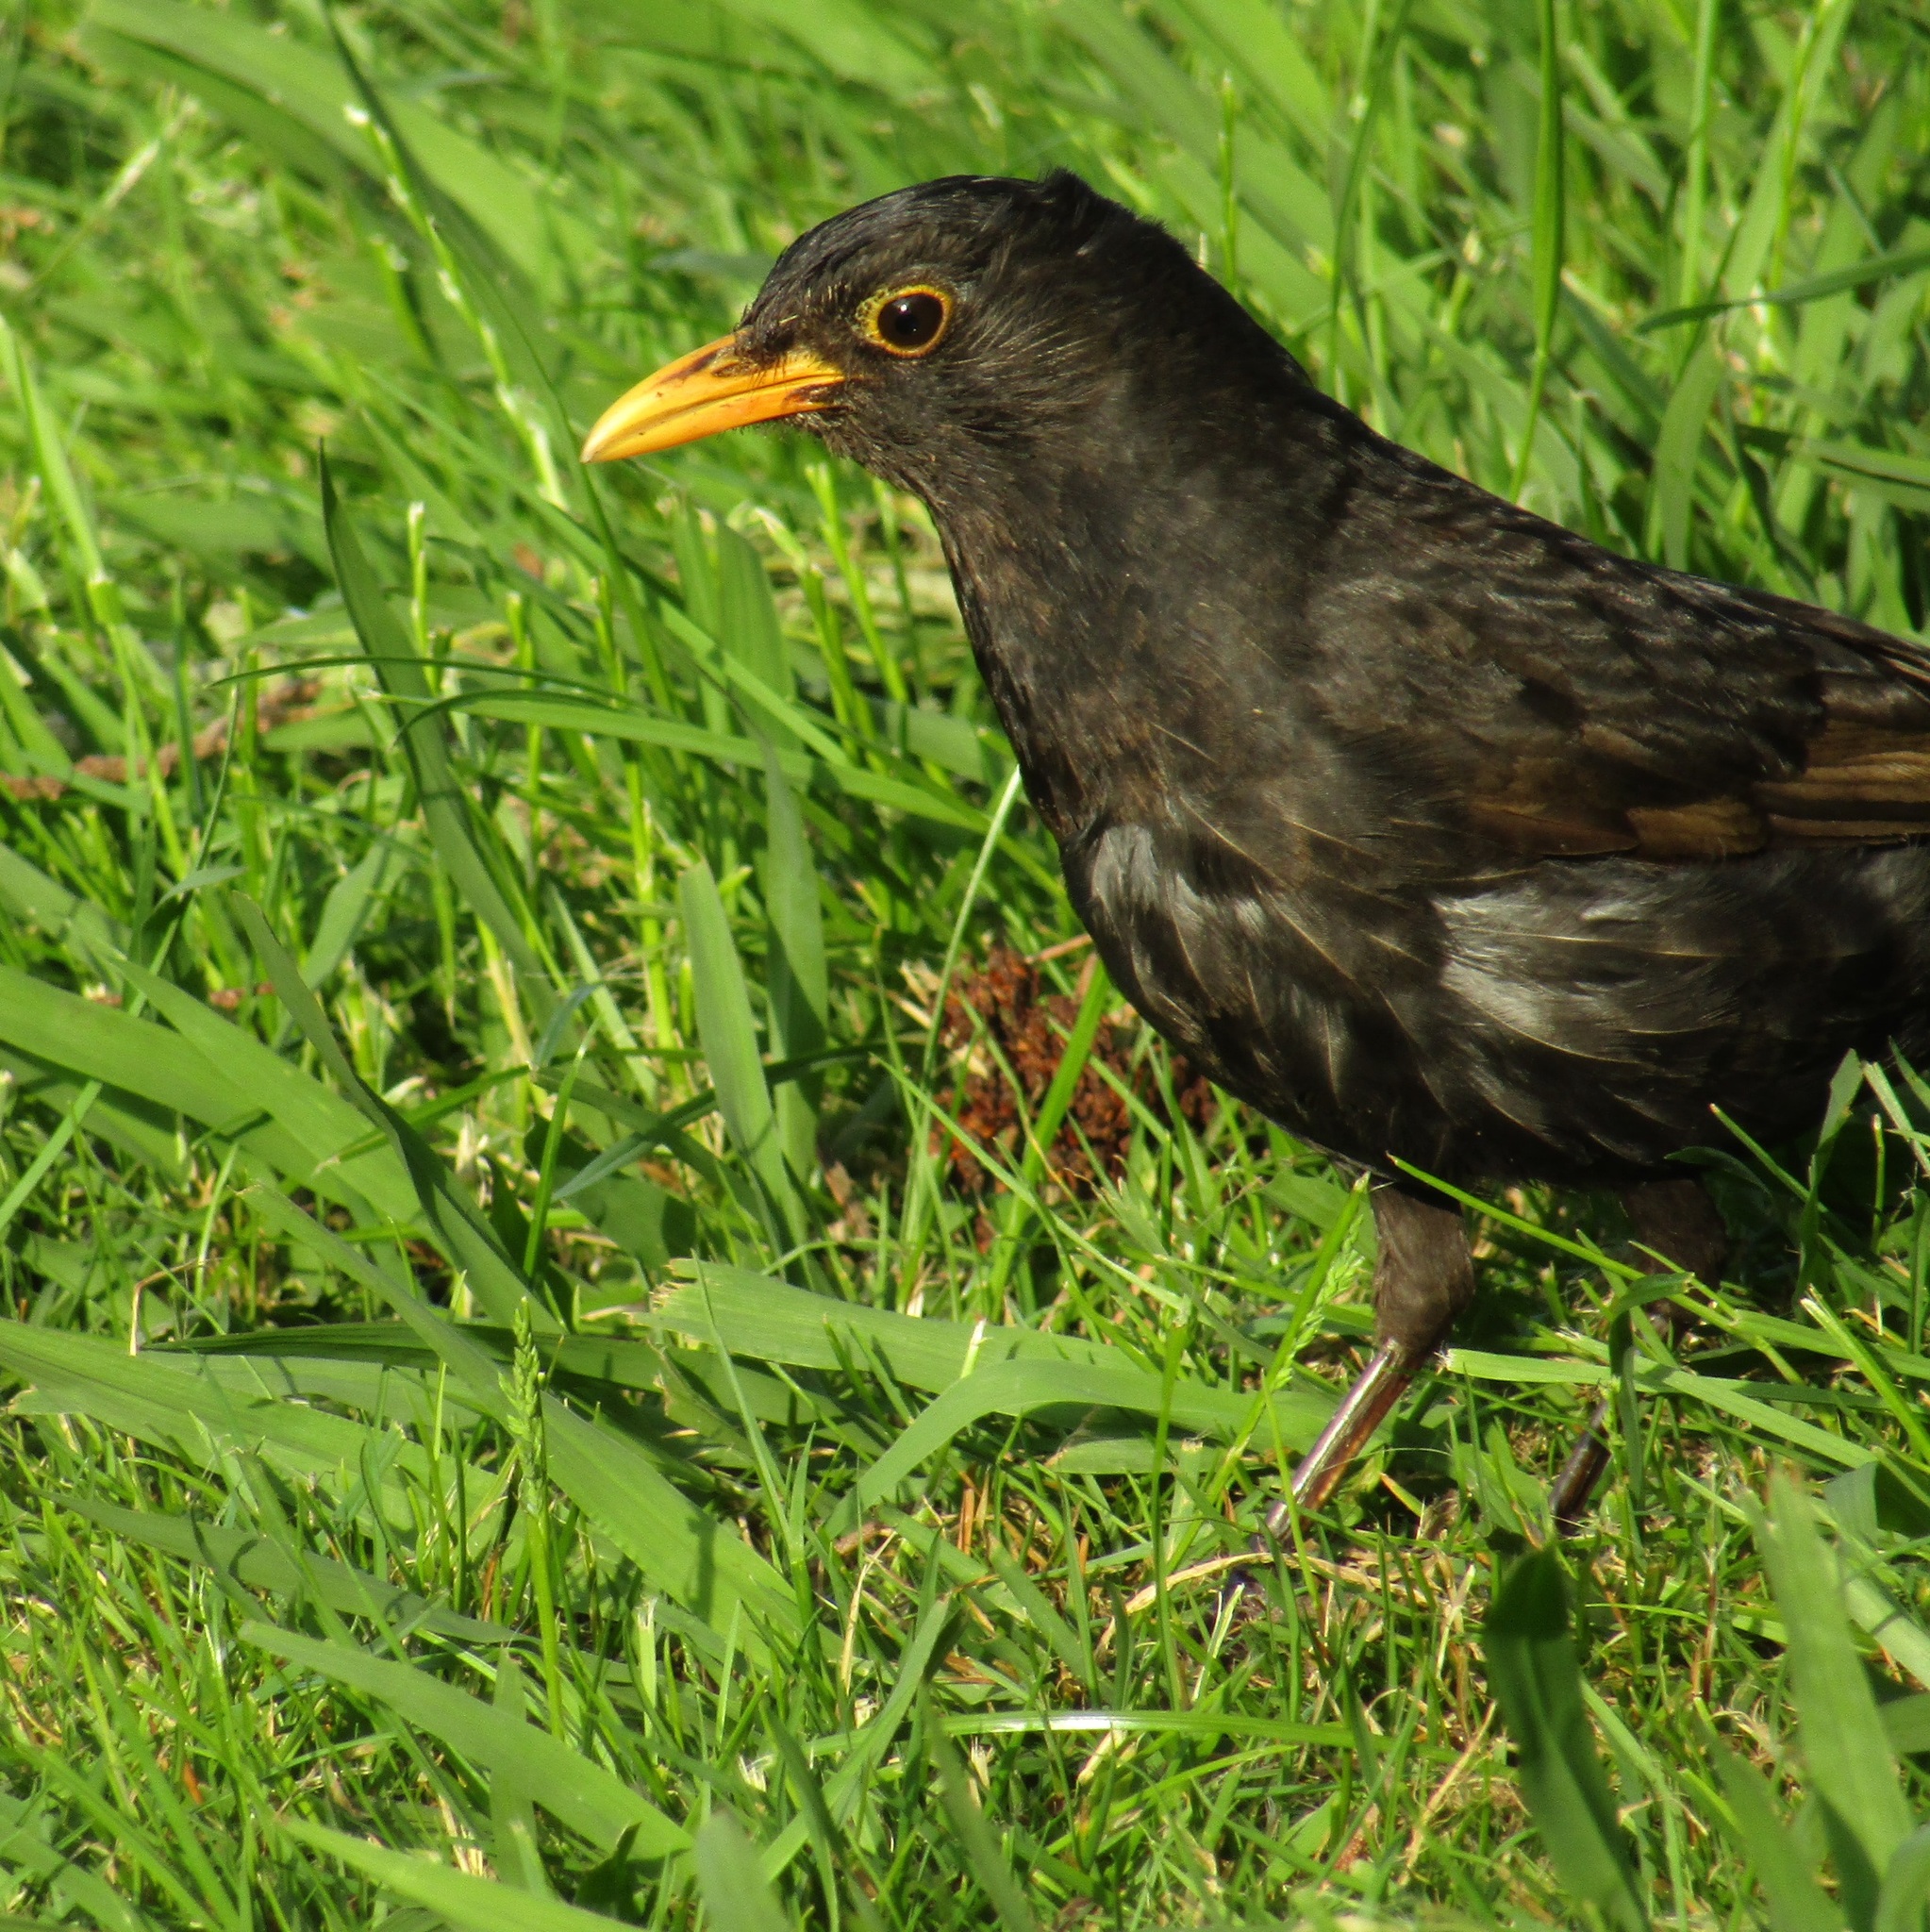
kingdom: Animalia
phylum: Chordata
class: Aves
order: Passeriformes
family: Turdidae
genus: Turdus
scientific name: Turdus merula
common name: Common blackbird
